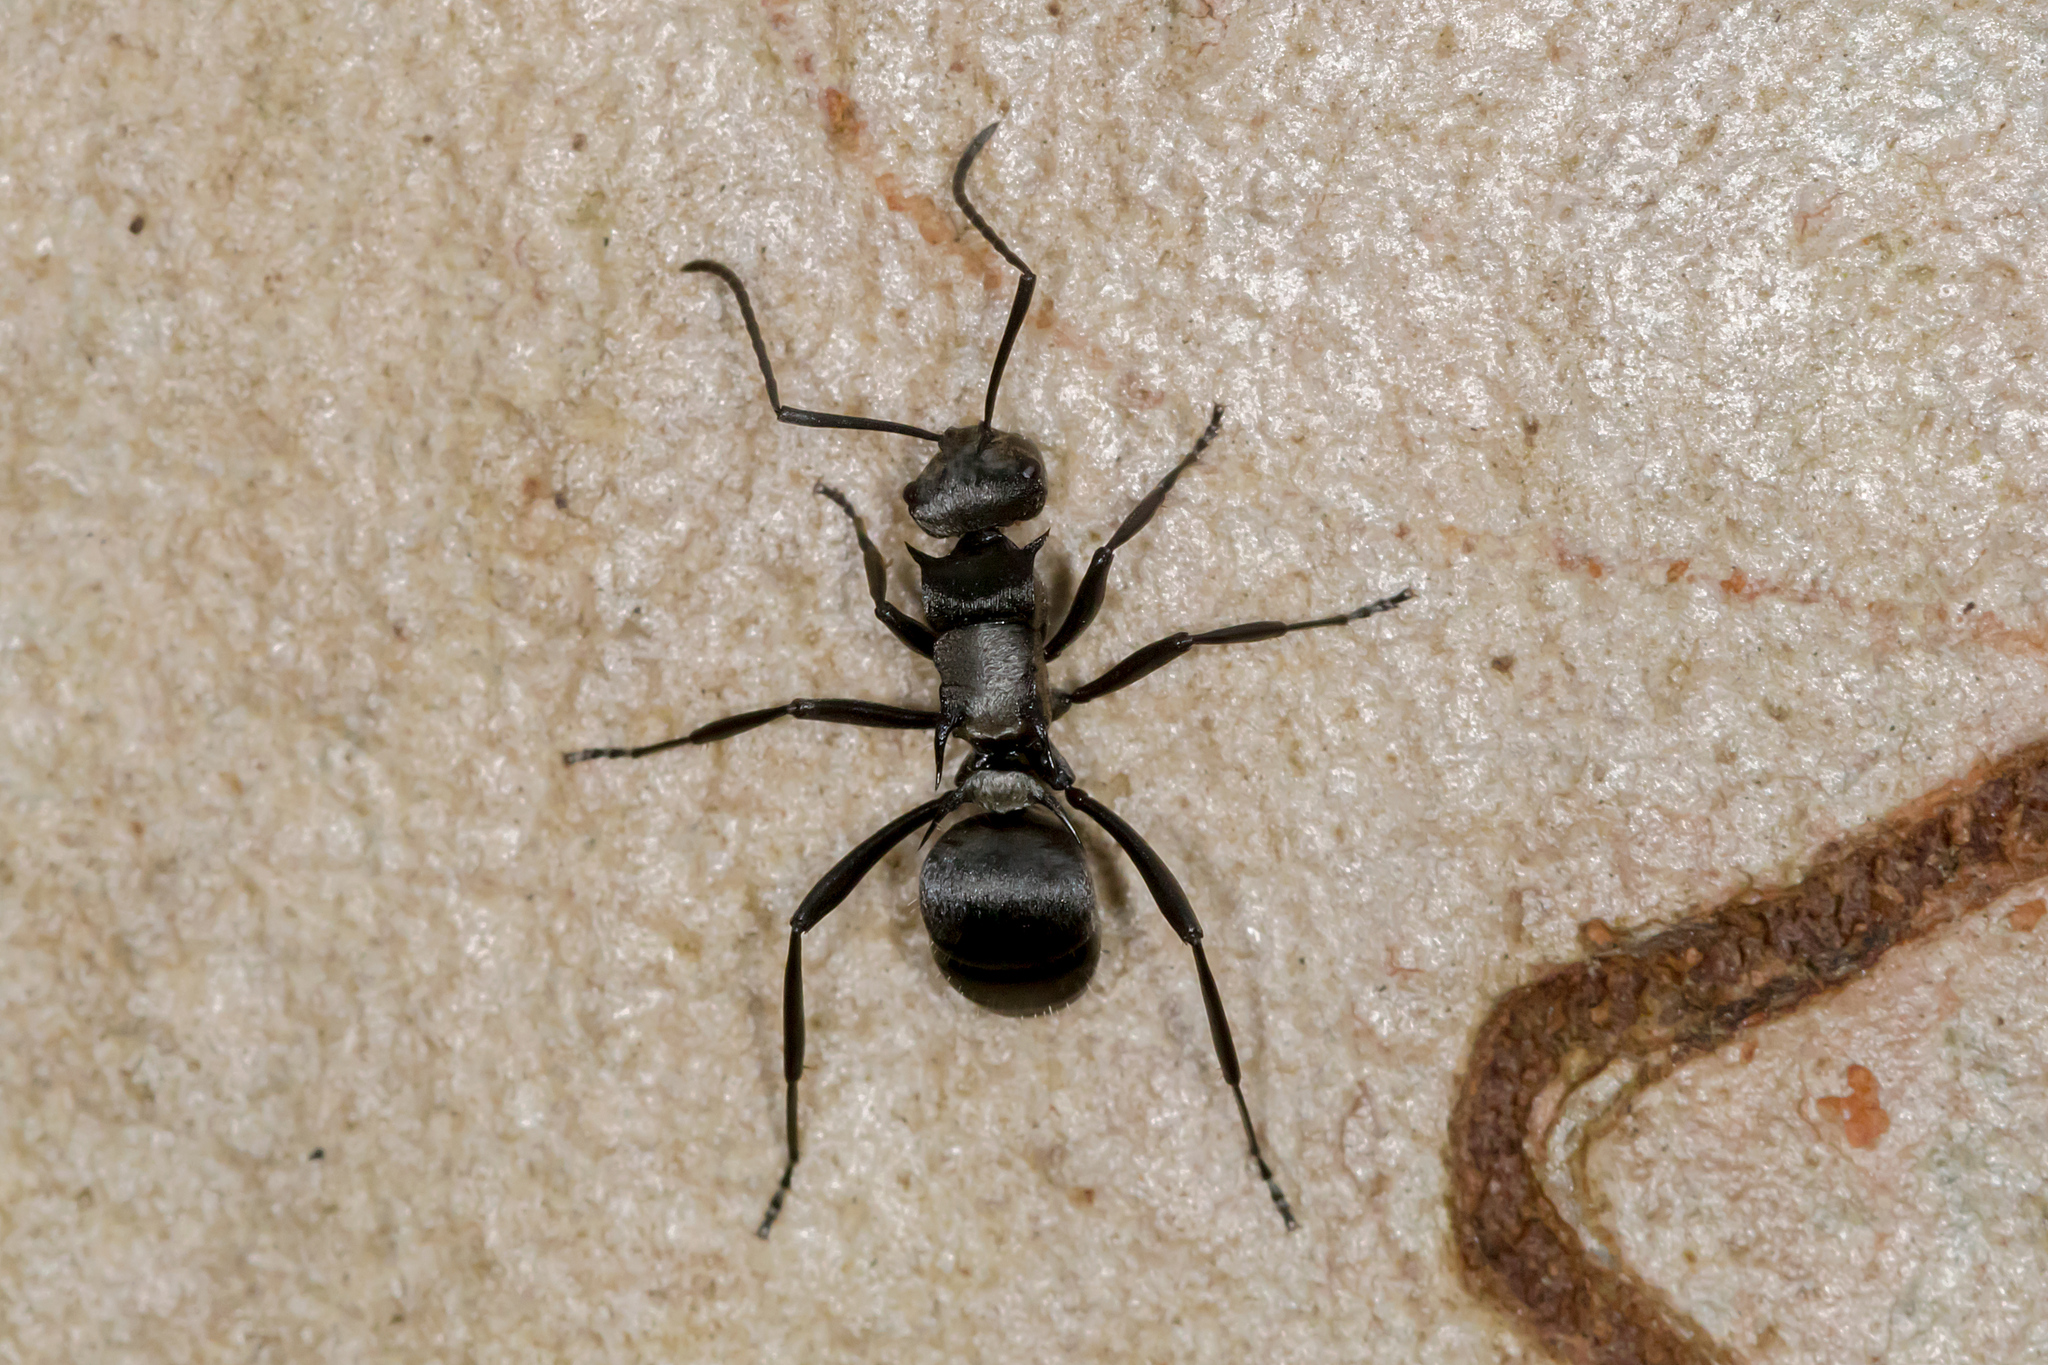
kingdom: Animalia
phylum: Arthropoda
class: Insecta
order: Hymenoptera
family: Formicidae
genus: Polyrhachis
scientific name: Polyrhachis daemeli
